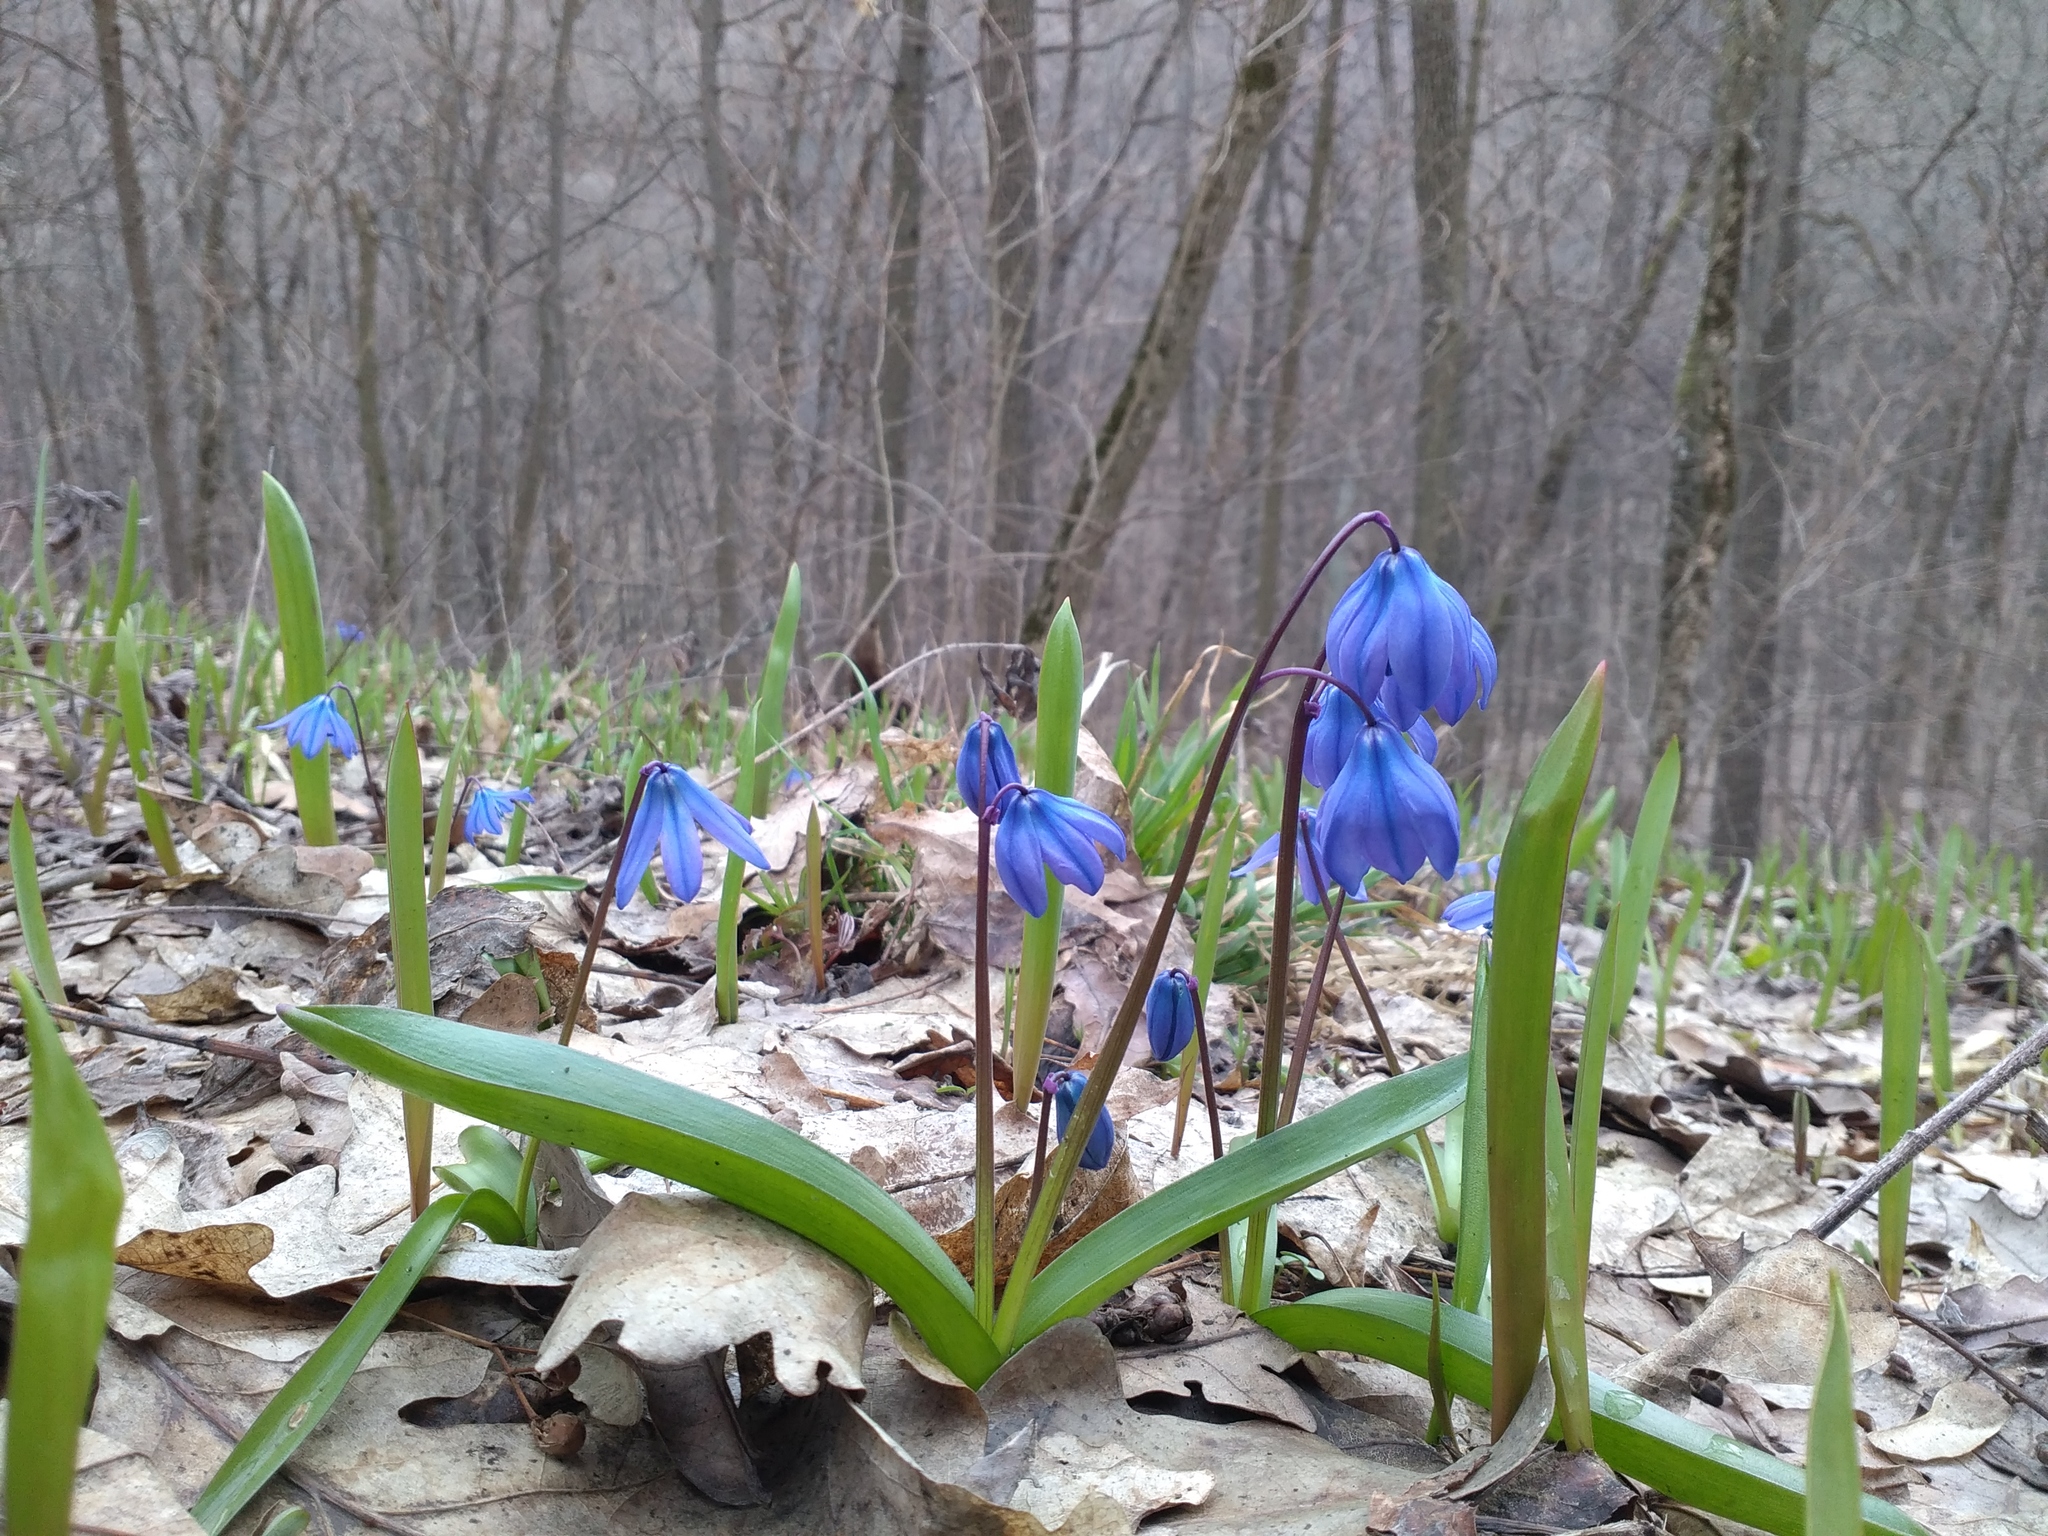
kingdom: Plantae
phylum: Tracheophyta
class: Liliopsida
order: Asparagales
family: Asparagaceae
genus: Scilla
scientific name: Scilla siberica
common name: Siberian squill
